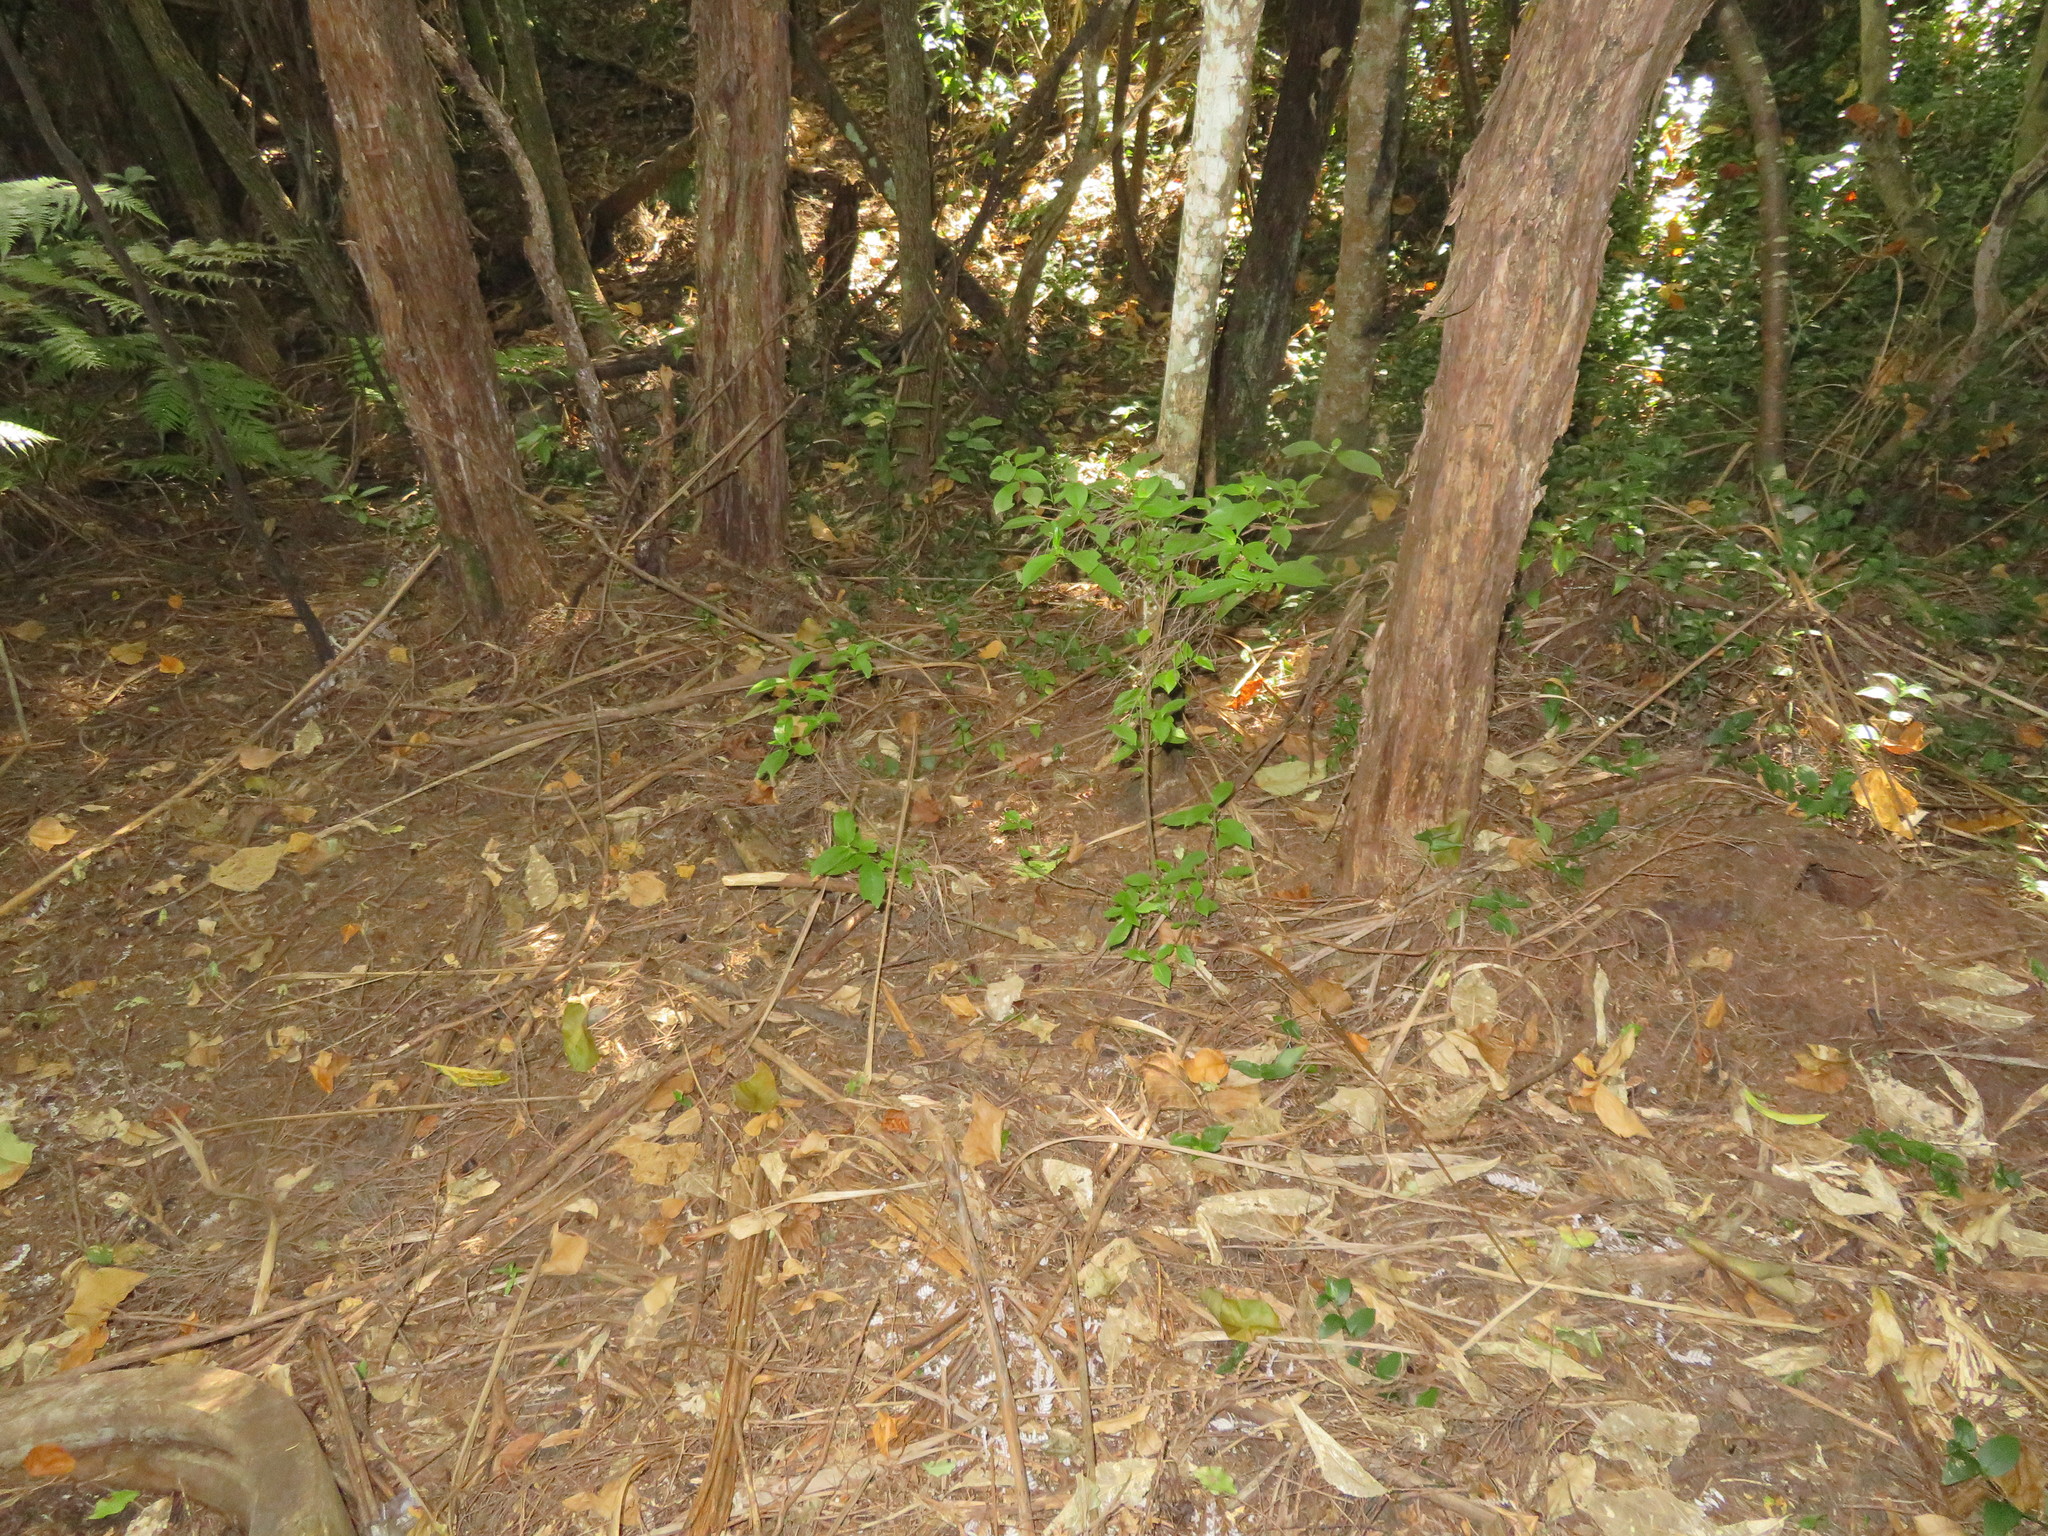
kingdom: Plantae
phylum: Tracheophyta
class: Liliopsida
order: Commelinales
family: Commelinaceae
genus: Tradescantia
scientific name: Tradescantia fluminensis
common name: Wandering-jew
